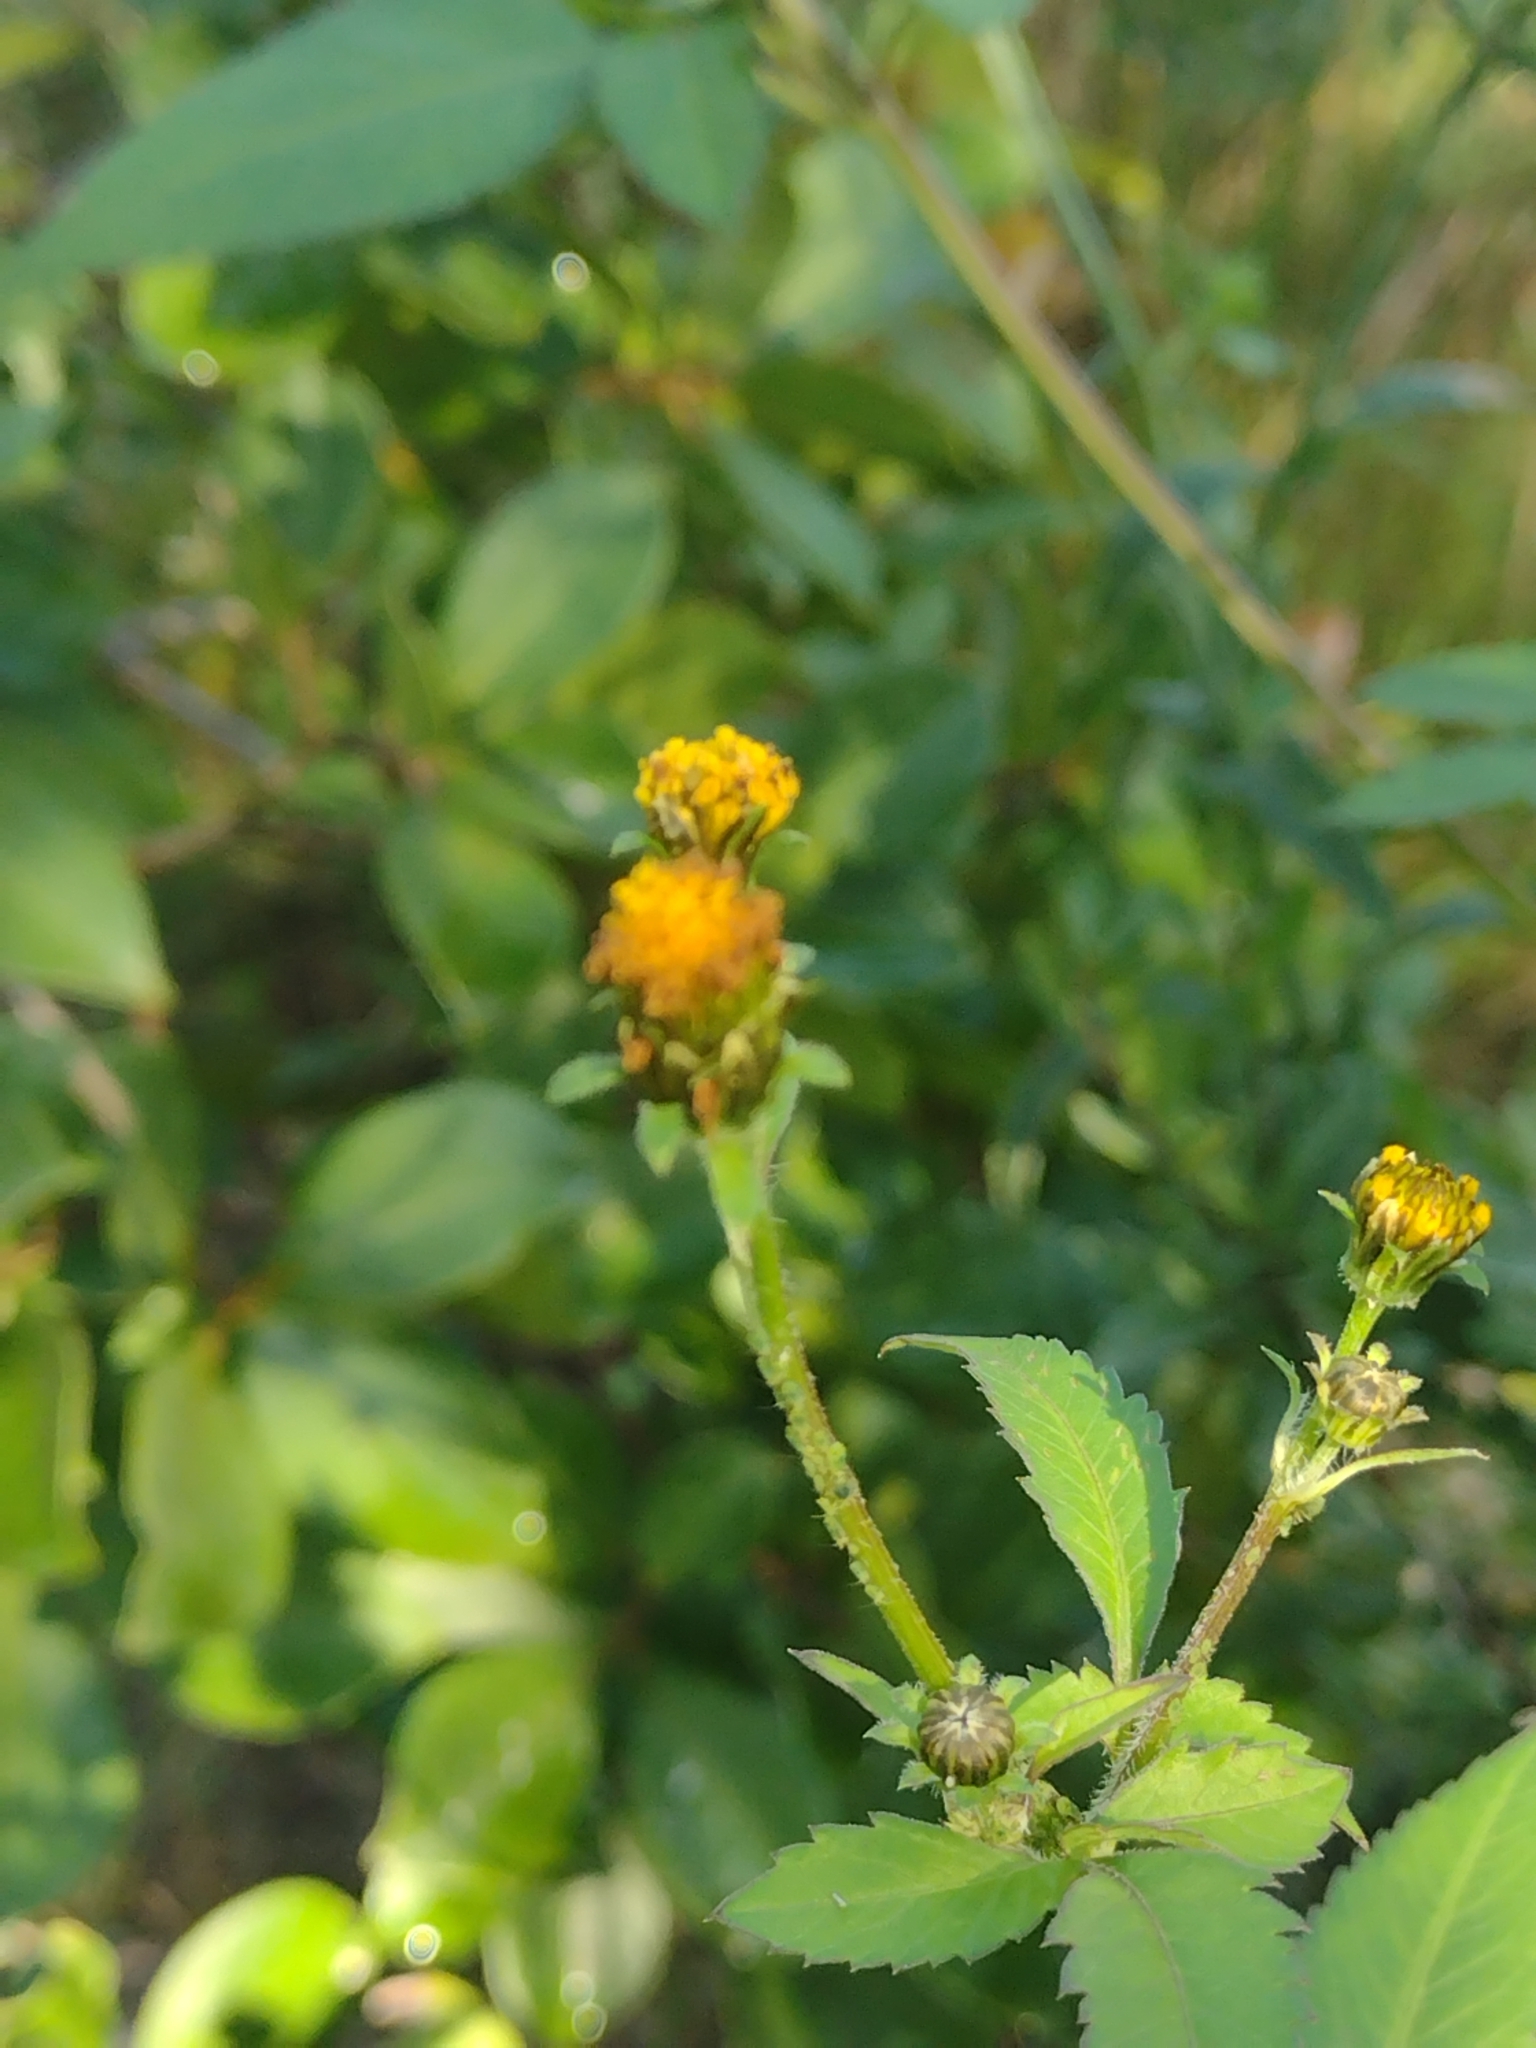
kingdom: Plantae
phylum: Tracheophyta
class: Magnoliopsida
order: Asterales
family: Asteraceae
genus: Bidens
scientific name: Bidens pilosa
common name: Black-jack
